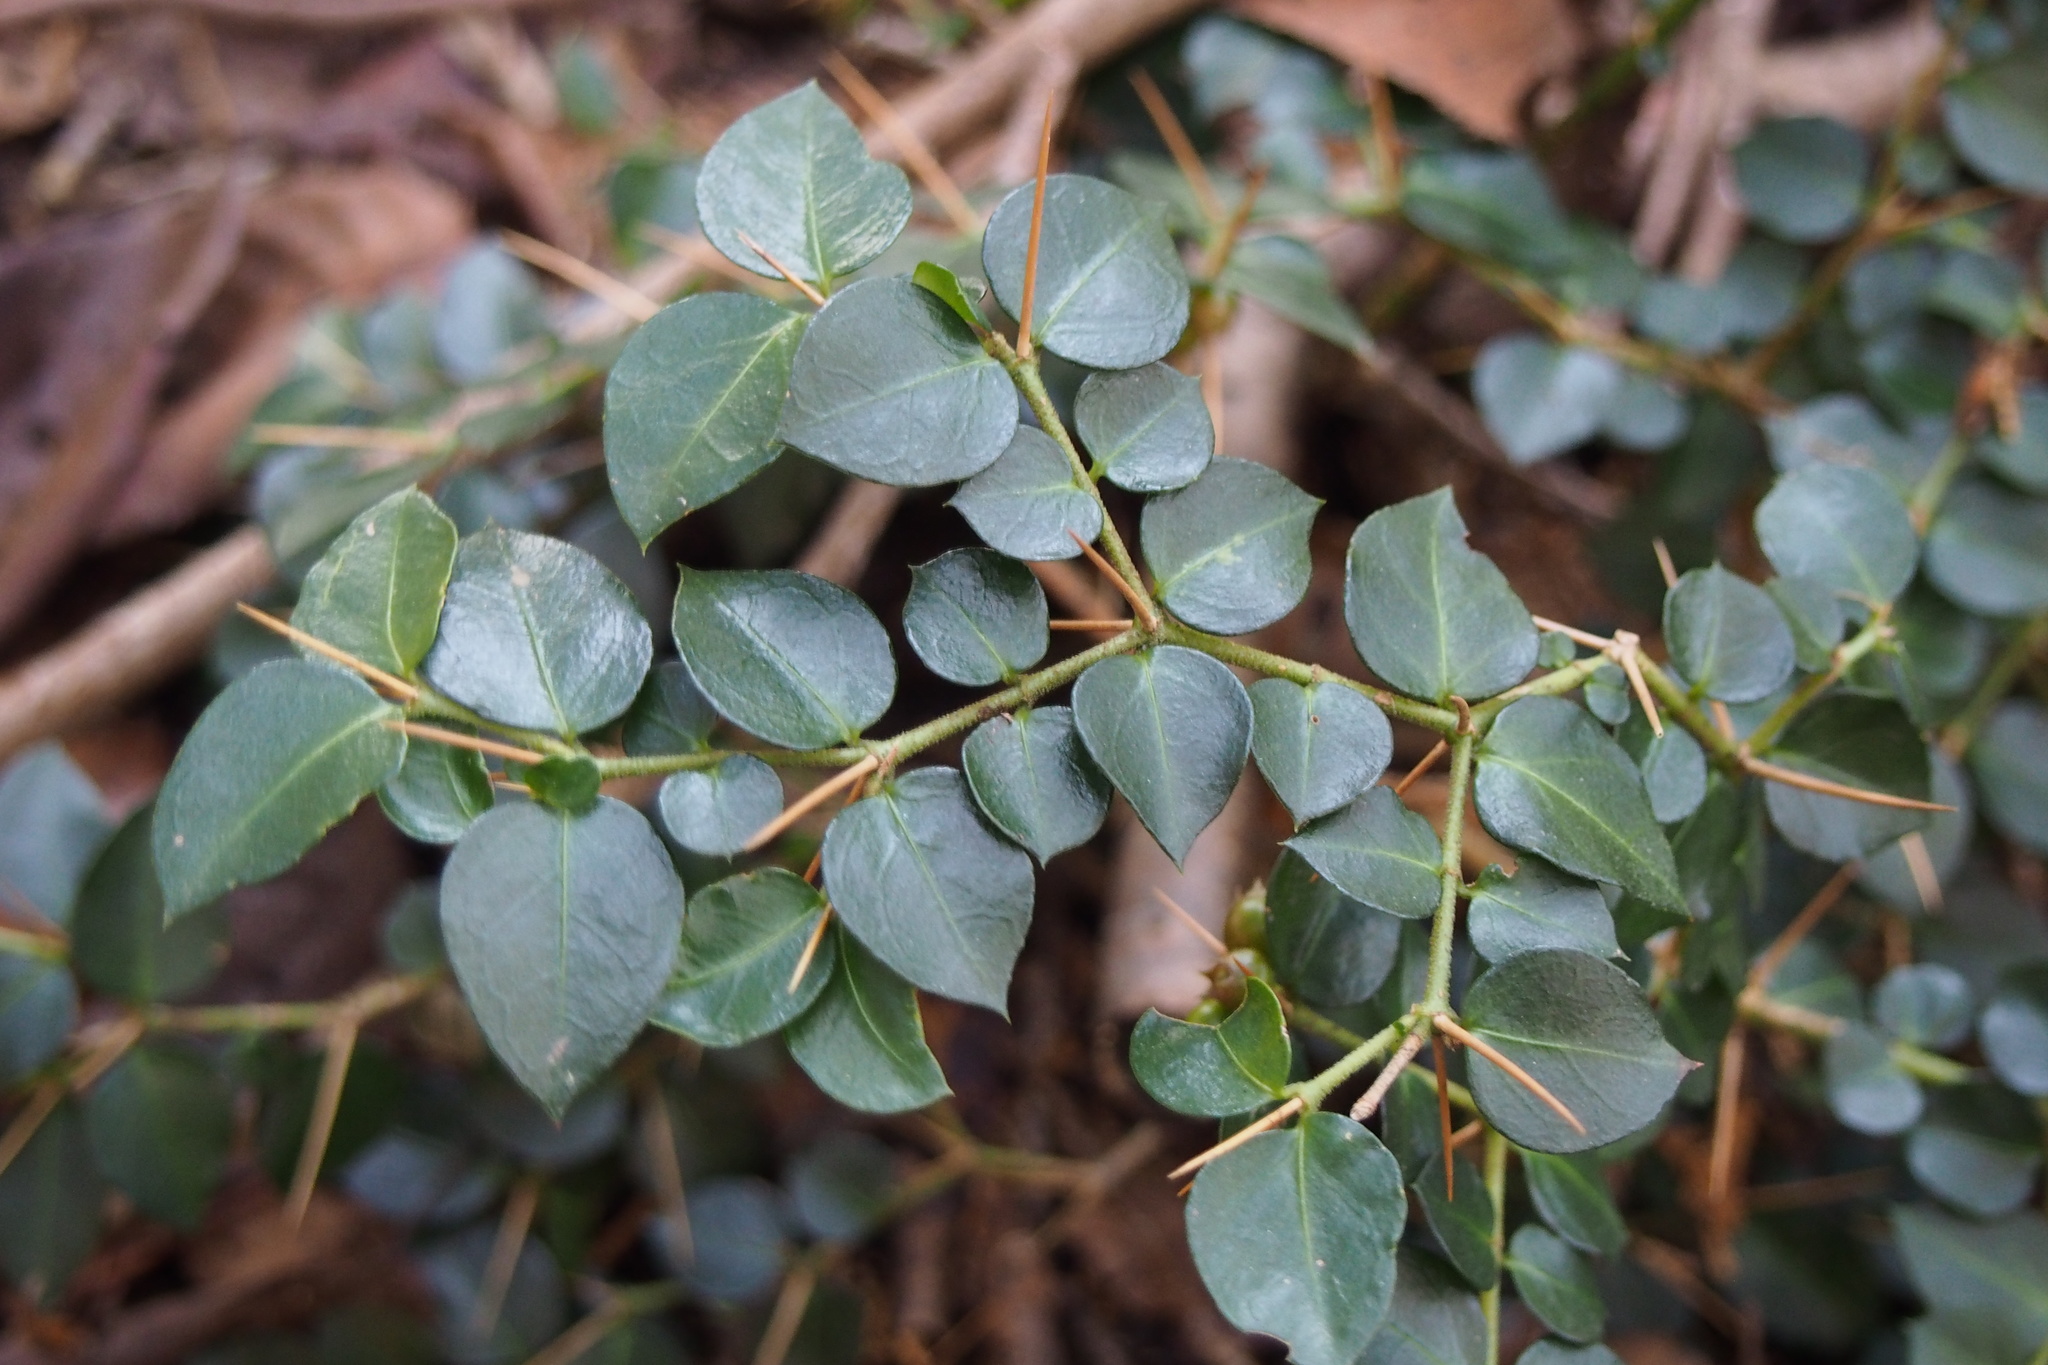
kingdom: Plantae
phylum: Tracheophyta
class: Magnoliopsida
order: Gentianales
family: Rubiaceae
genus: Damnacanthus
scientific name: Damnacanthus indicus
